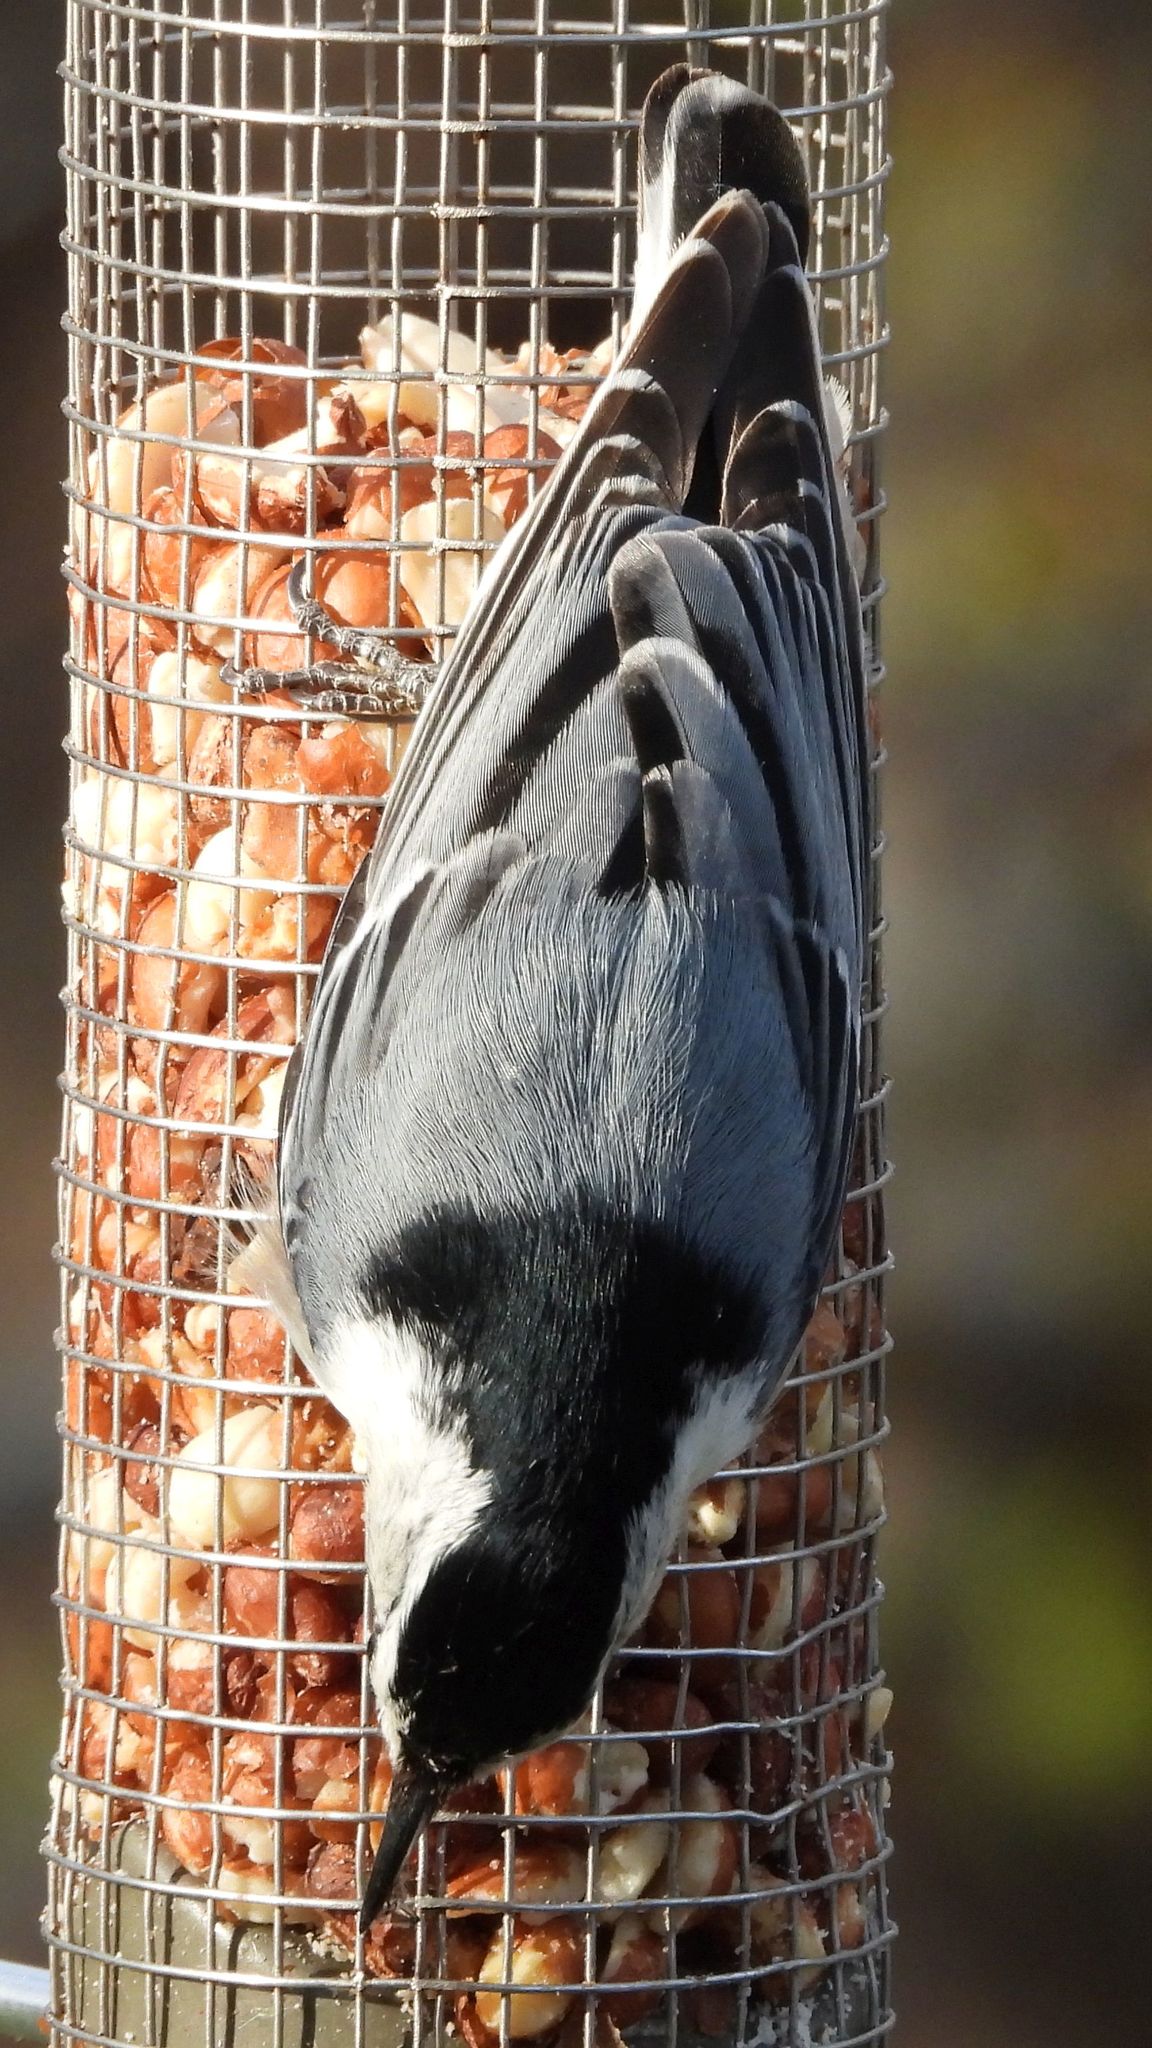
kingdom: Animalia
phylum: Chordata
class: Aves
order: Passeriformes
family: Sittidae
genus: Sitta
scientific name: Sitta carolinensis
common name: White-breasted nuthatch
